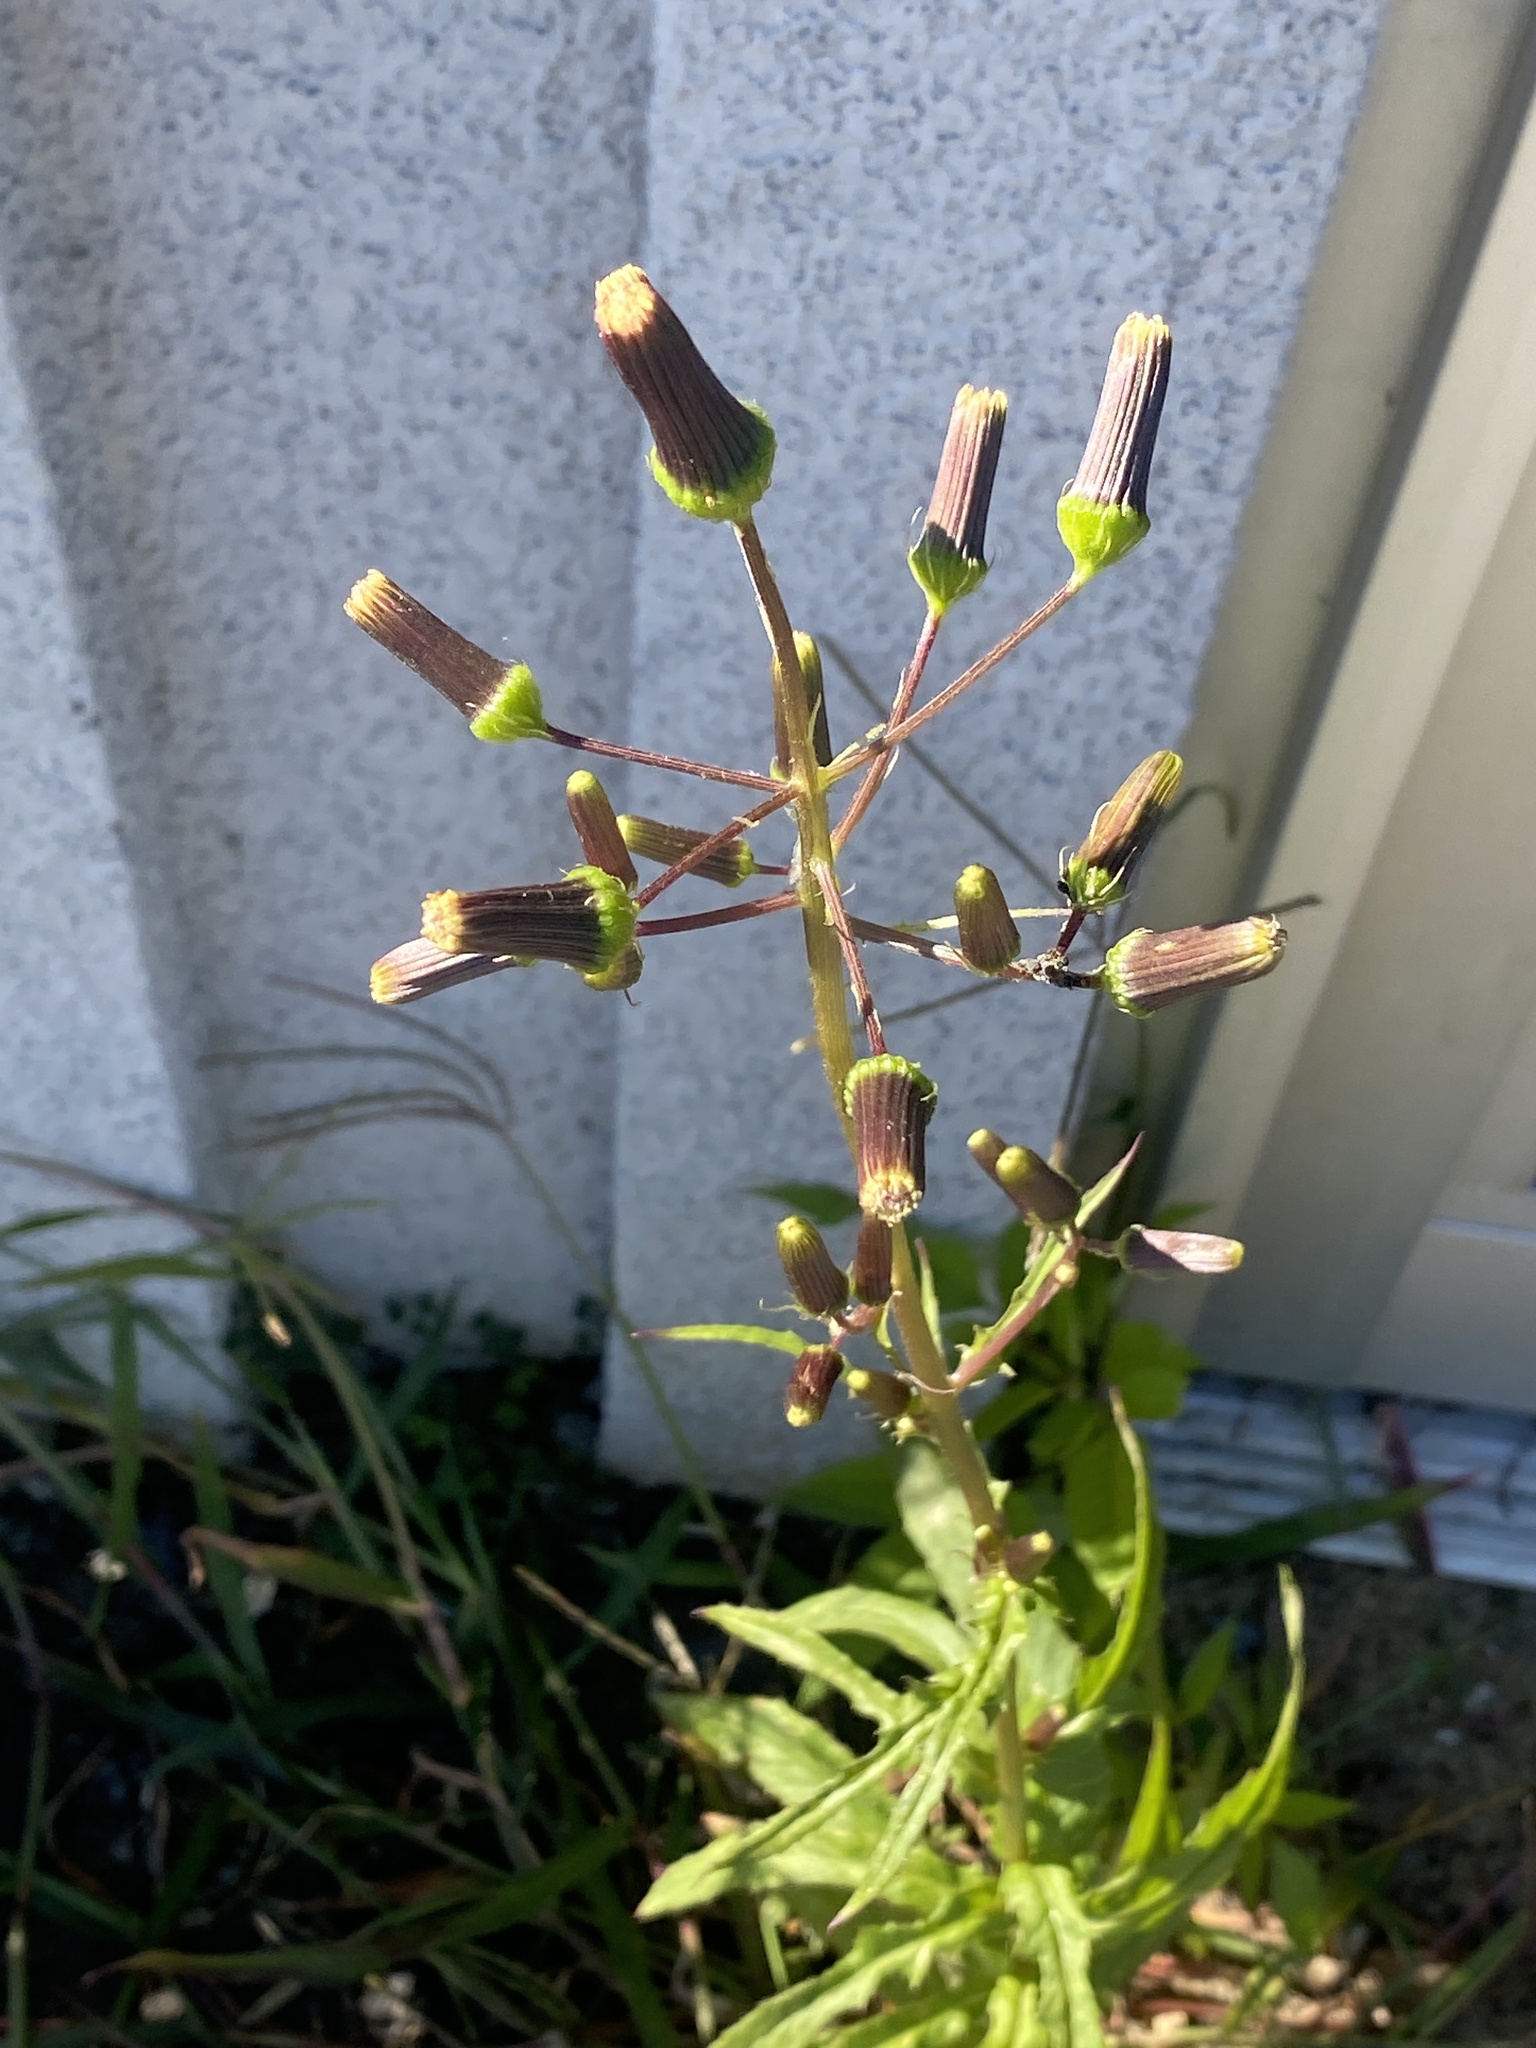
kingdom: Plantae
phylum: Tracheophyta
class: Magnoliopsida
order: Asterales
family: Asteraceae
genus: Erechtites
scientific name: Erechtites hieraciifolius
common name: American burnweed
